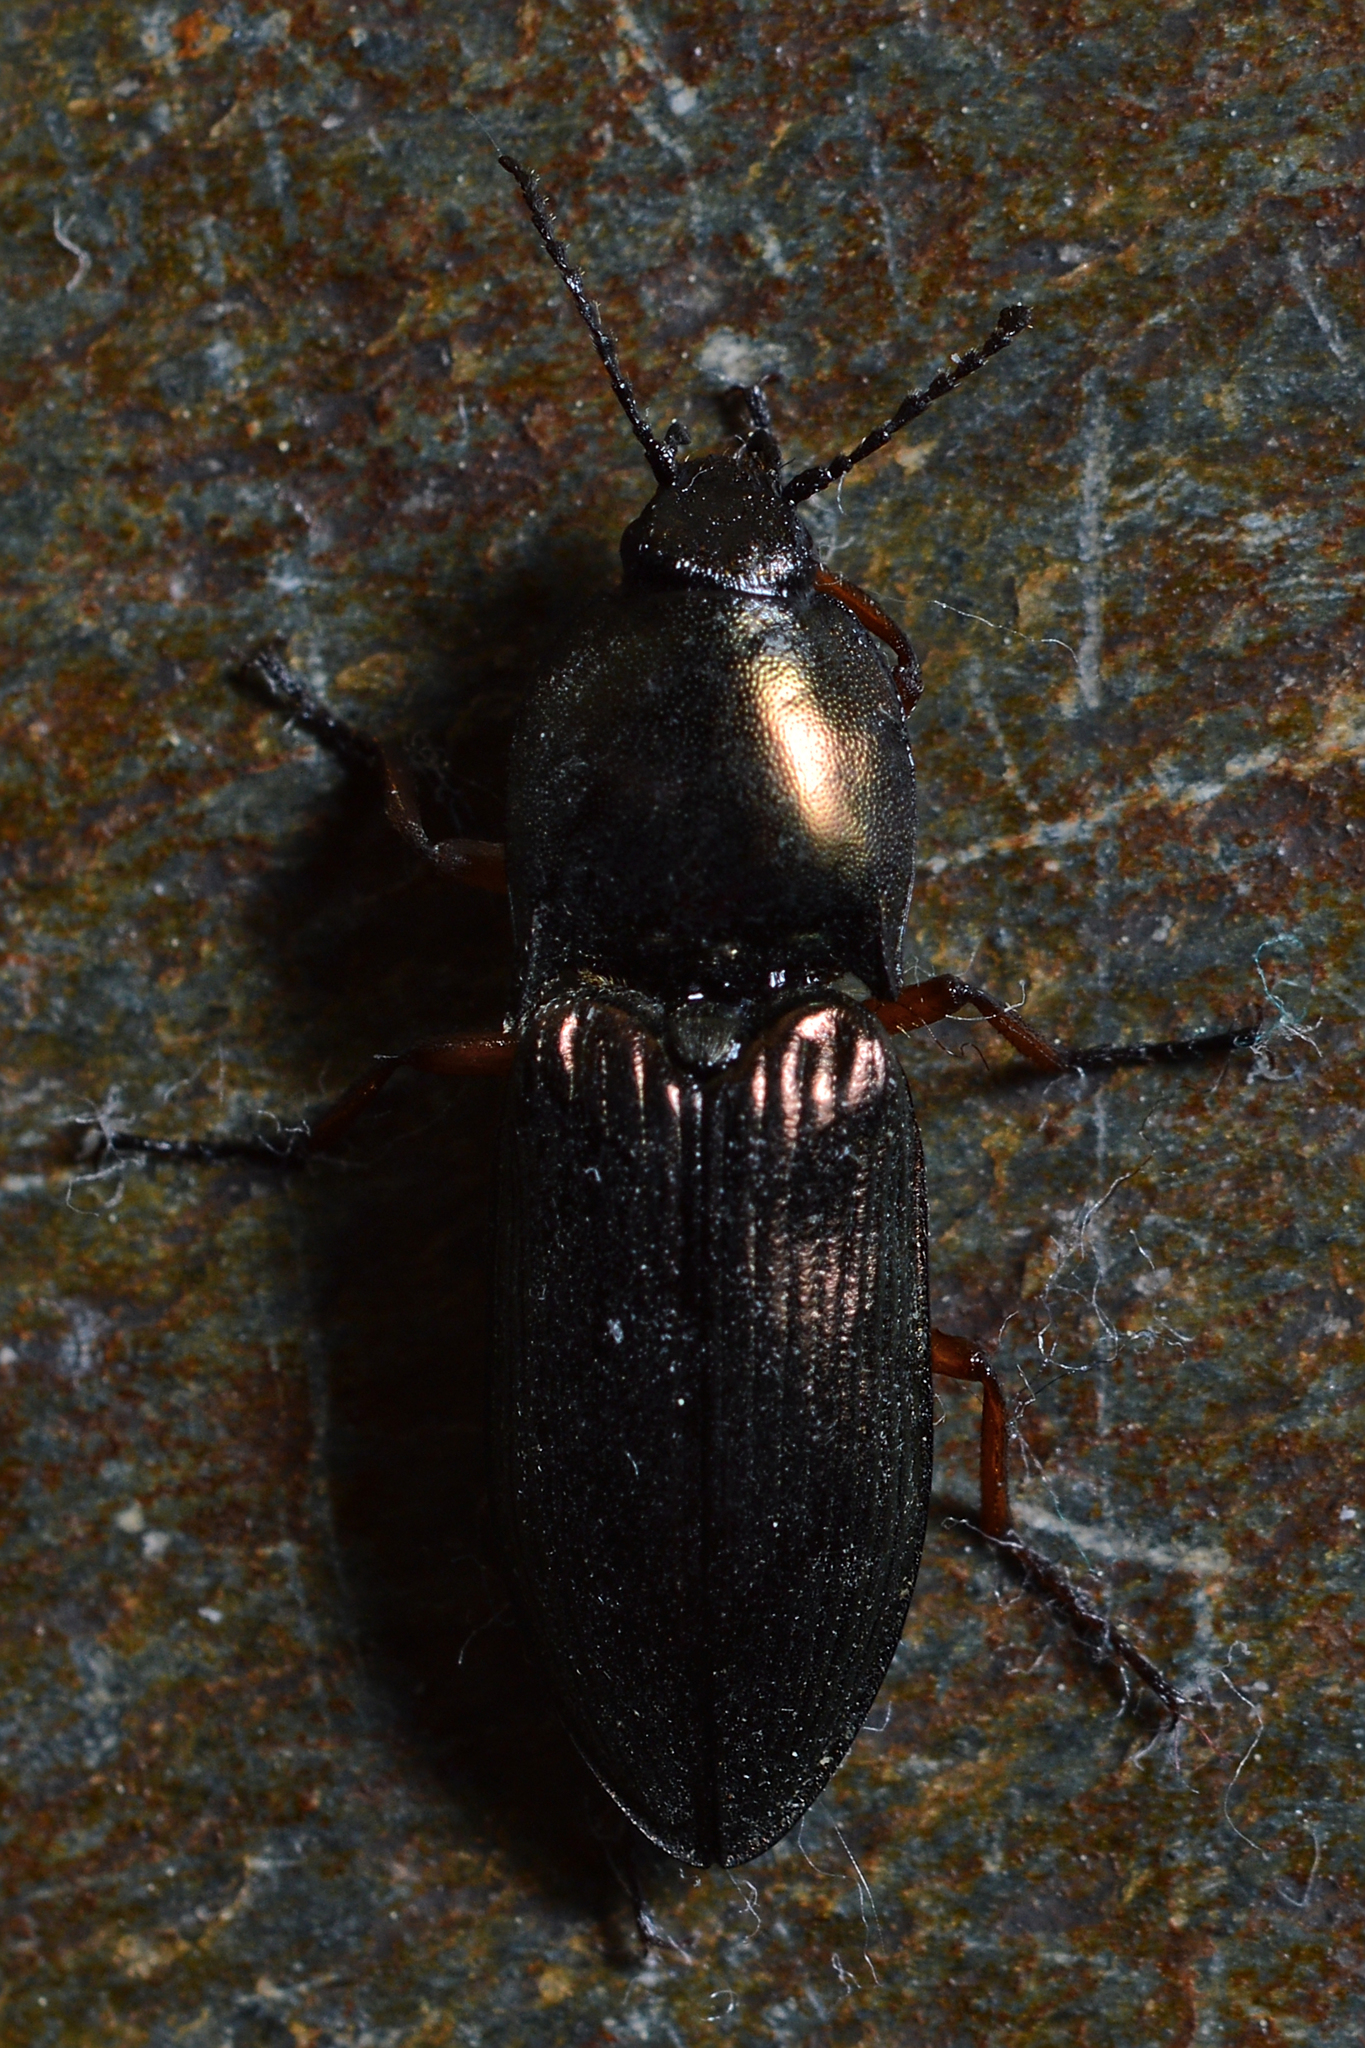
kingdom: Animalia
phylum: Arthropoda
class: Insecta
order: Coleoptera
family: Elateridae
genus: Selatosomus
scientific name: Selatosomus aeneus
